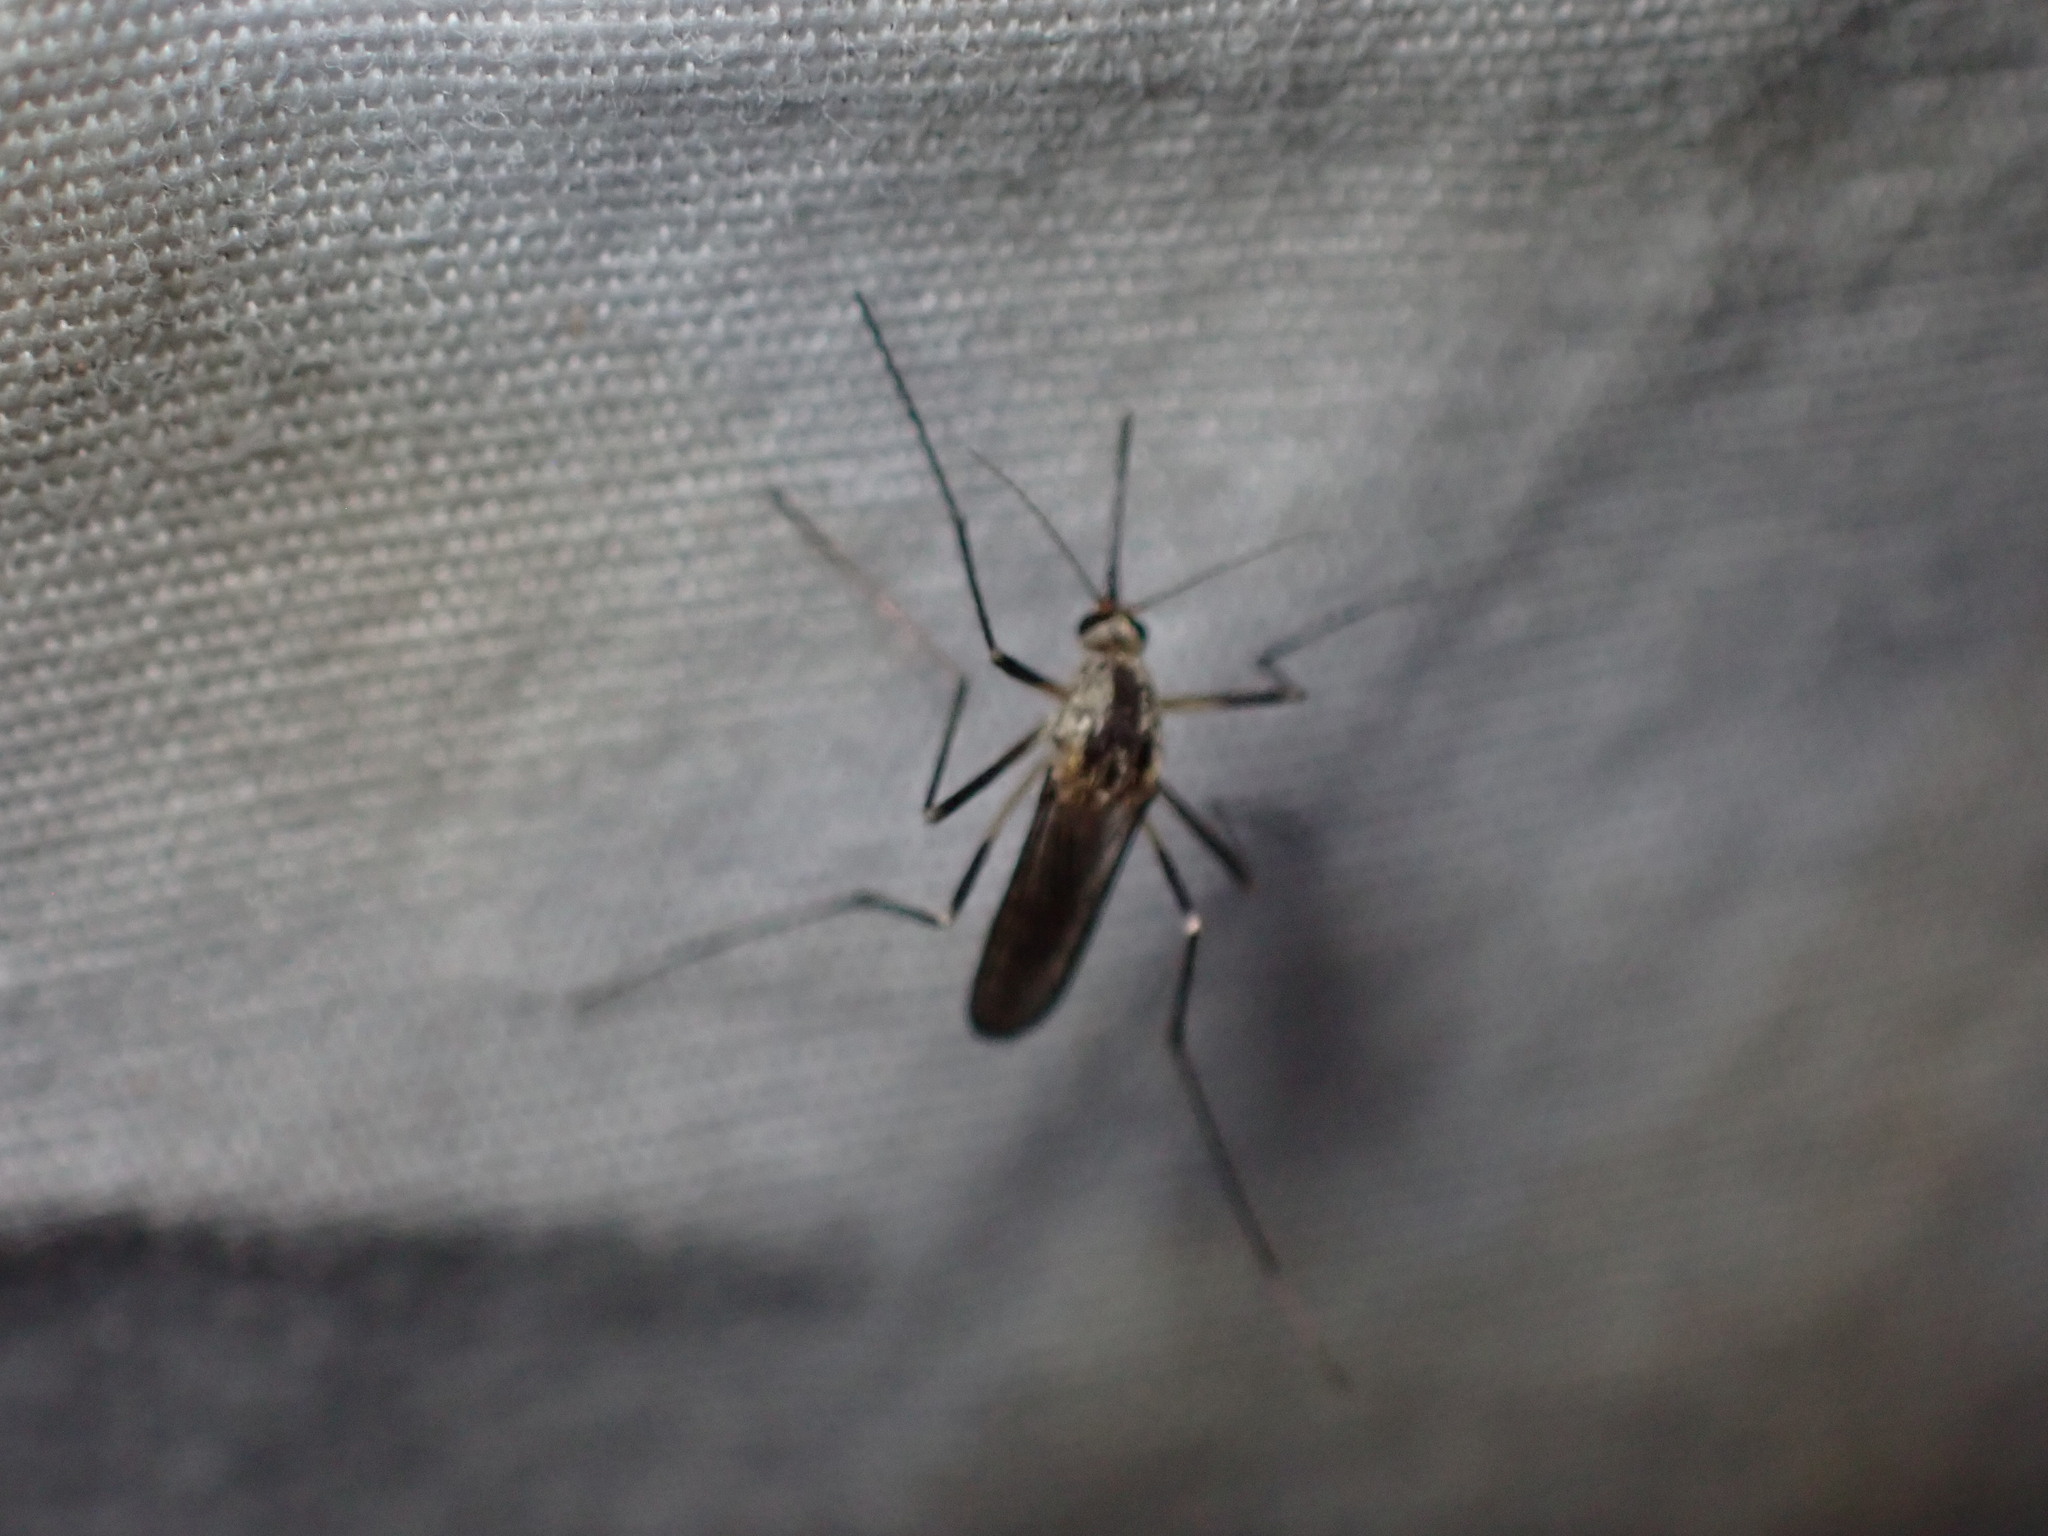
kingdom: Animalia
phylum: Arthropoda
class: Insecta
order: Diptera
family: Culicidae
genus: Aedes
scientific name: Aedes hendersoni
